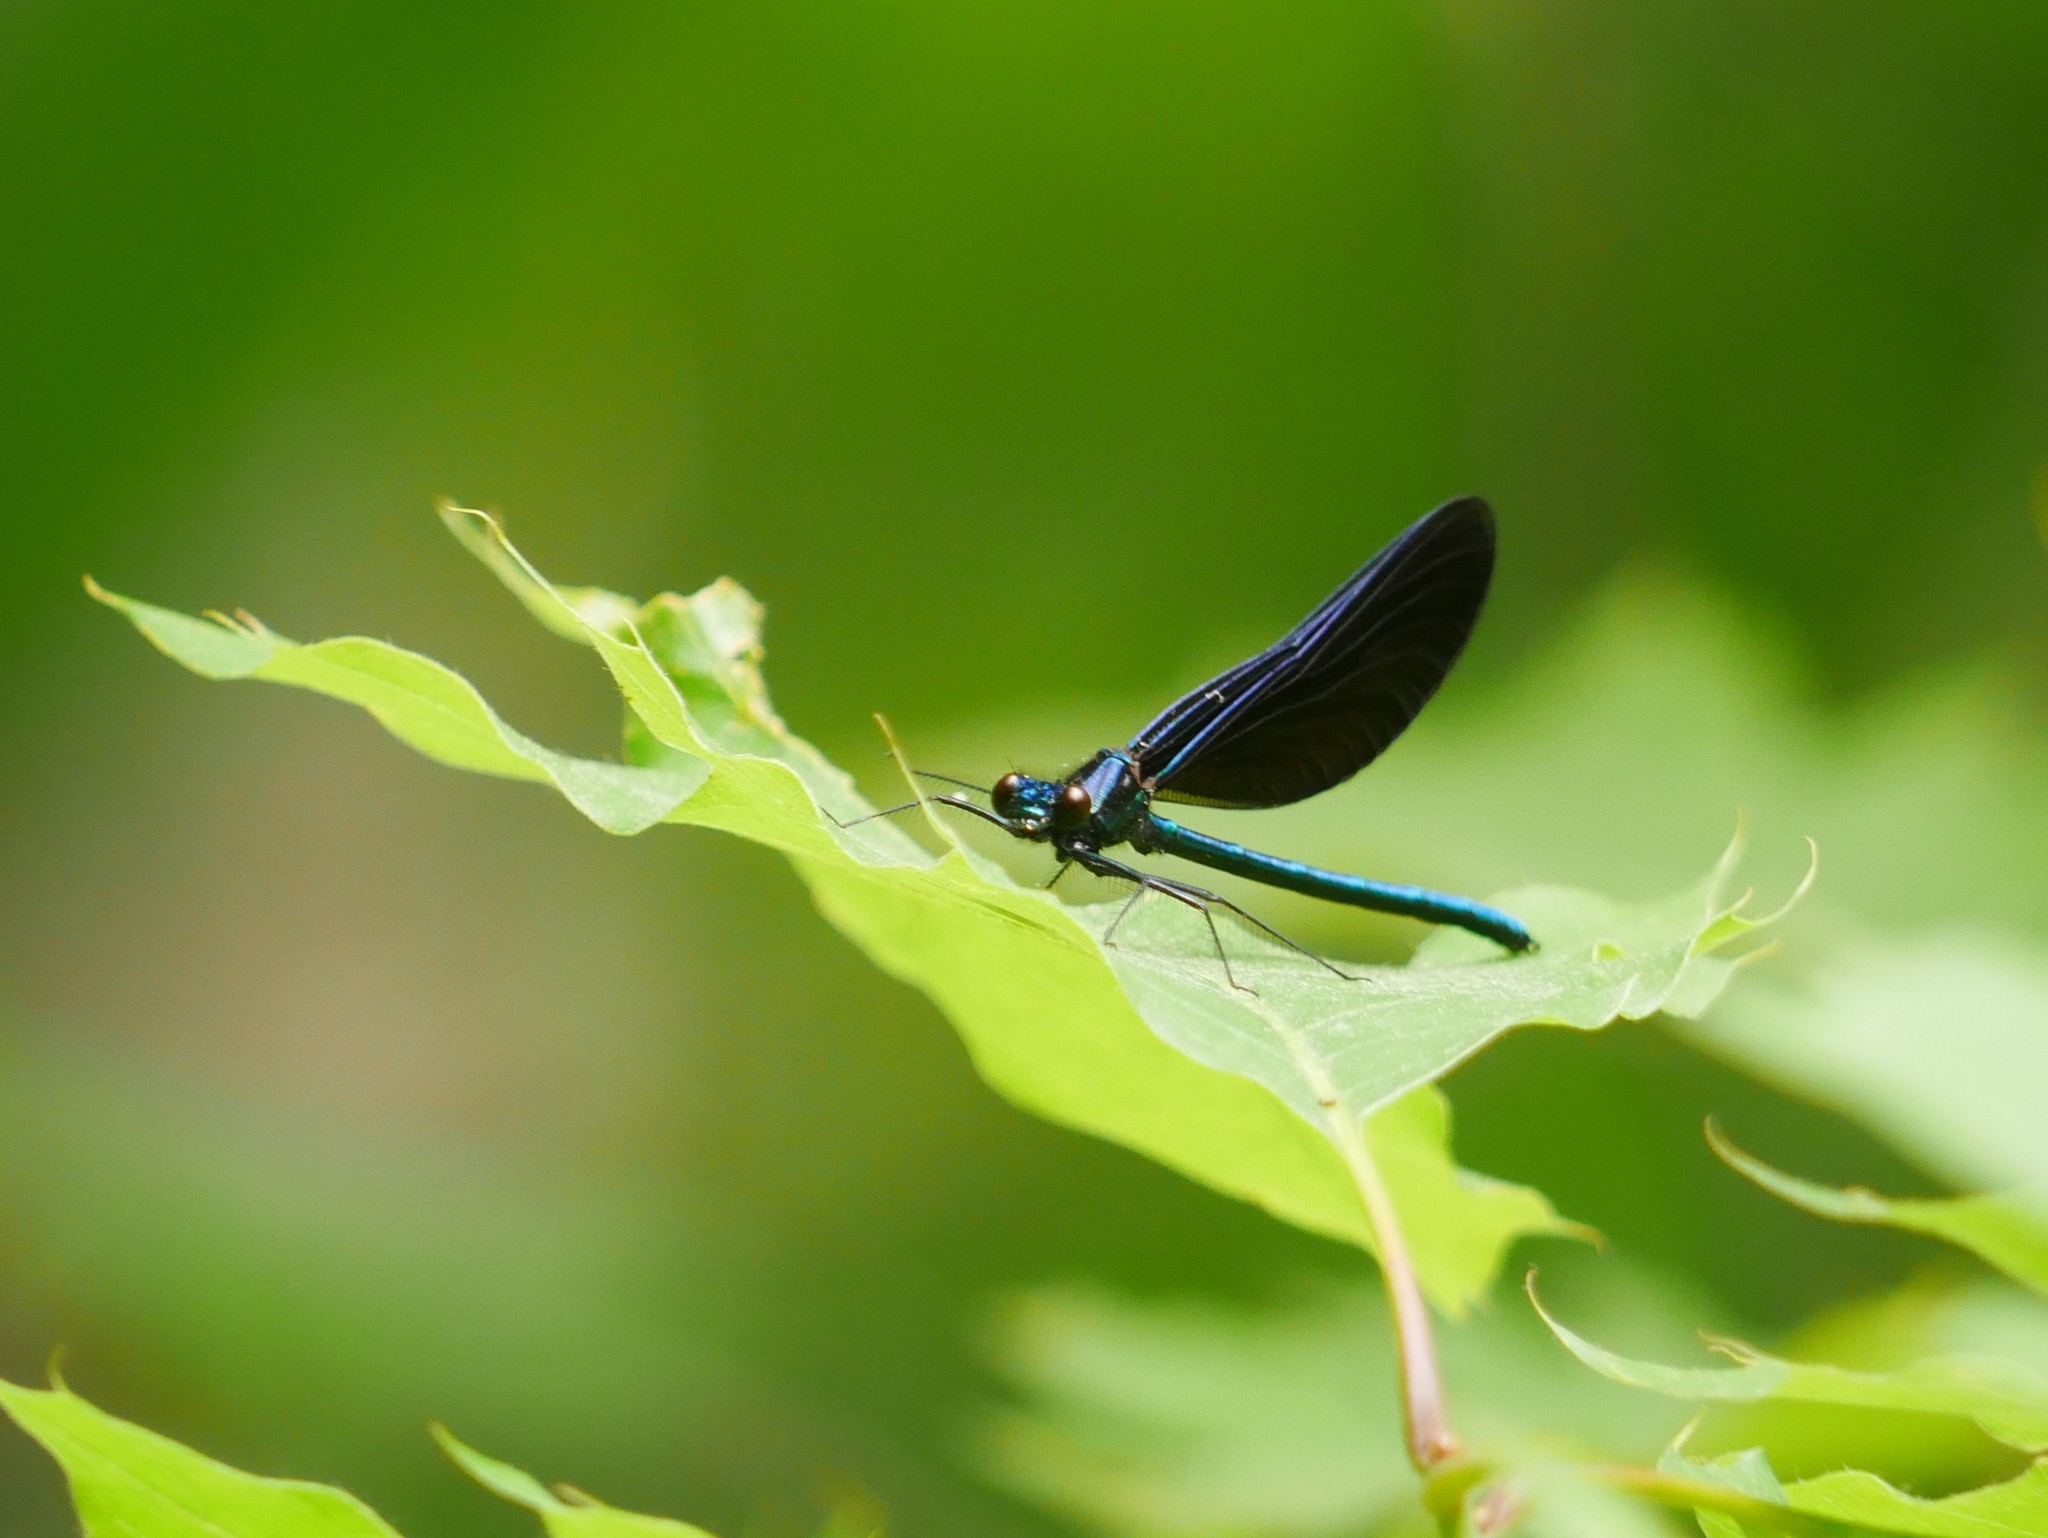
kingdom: Animalia
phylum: Arthropoda
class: Insecta
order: Odonata
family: Calopterygidae
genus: Calopteryx
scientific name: Calopteryx maculata
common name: Ebony jewelwing
